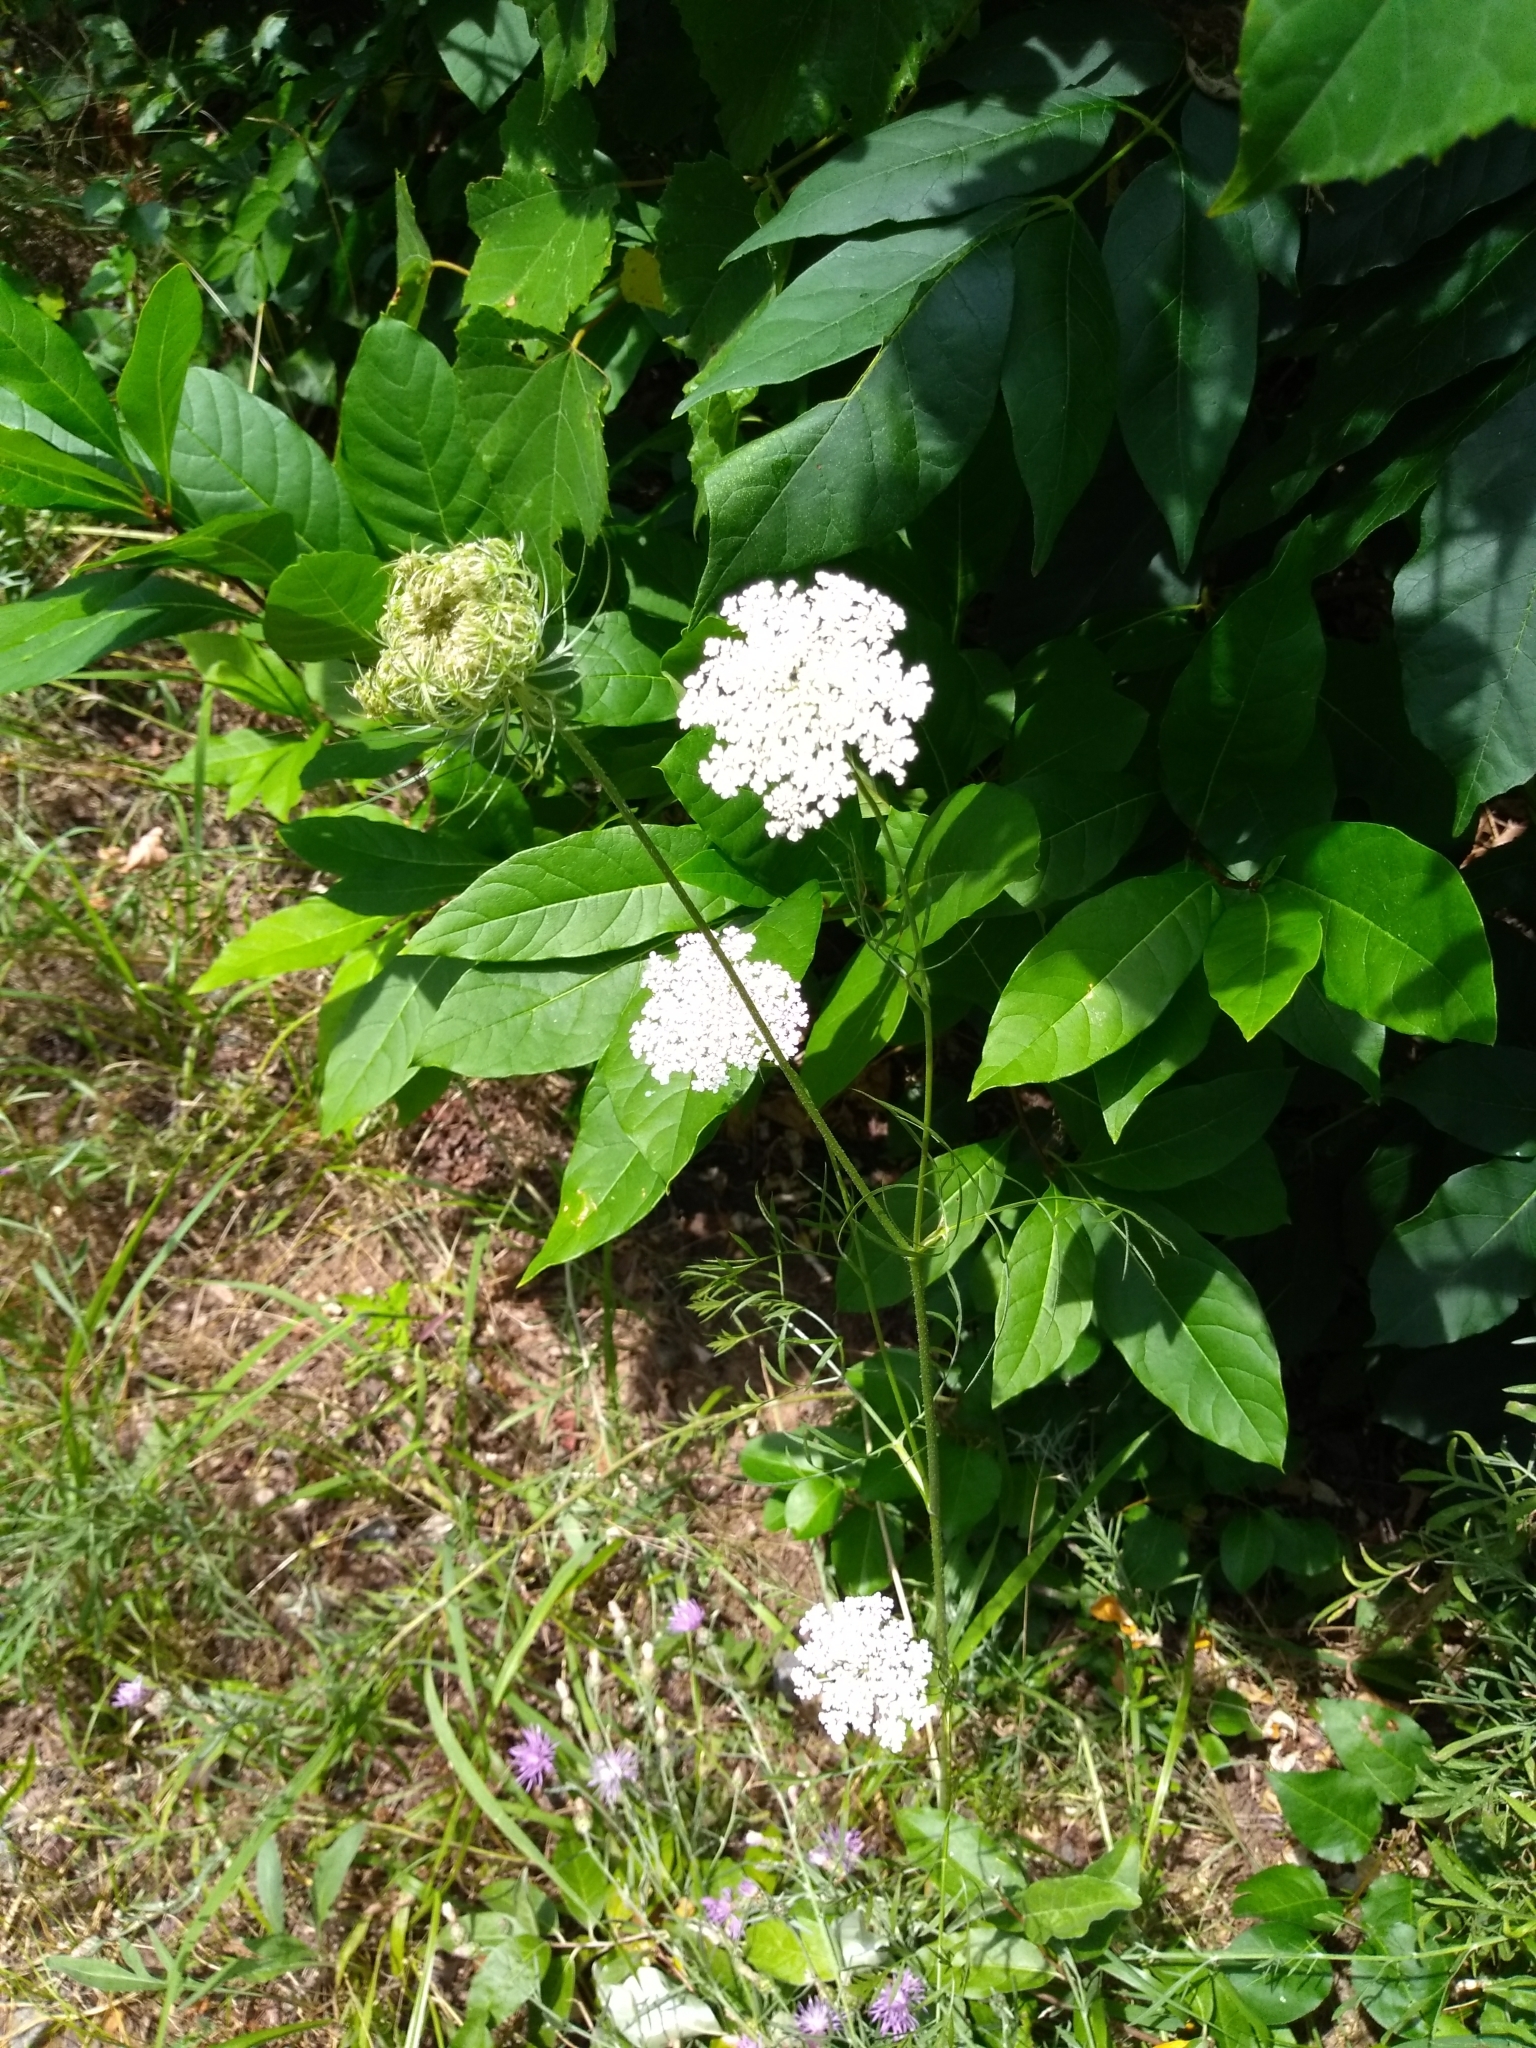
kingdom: Plantae
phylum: Tracheophyta
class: Magnoliopsida
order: Apiales
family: Apiaceae
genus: Daucus
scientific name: Daucus carota
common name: Wild carrot
